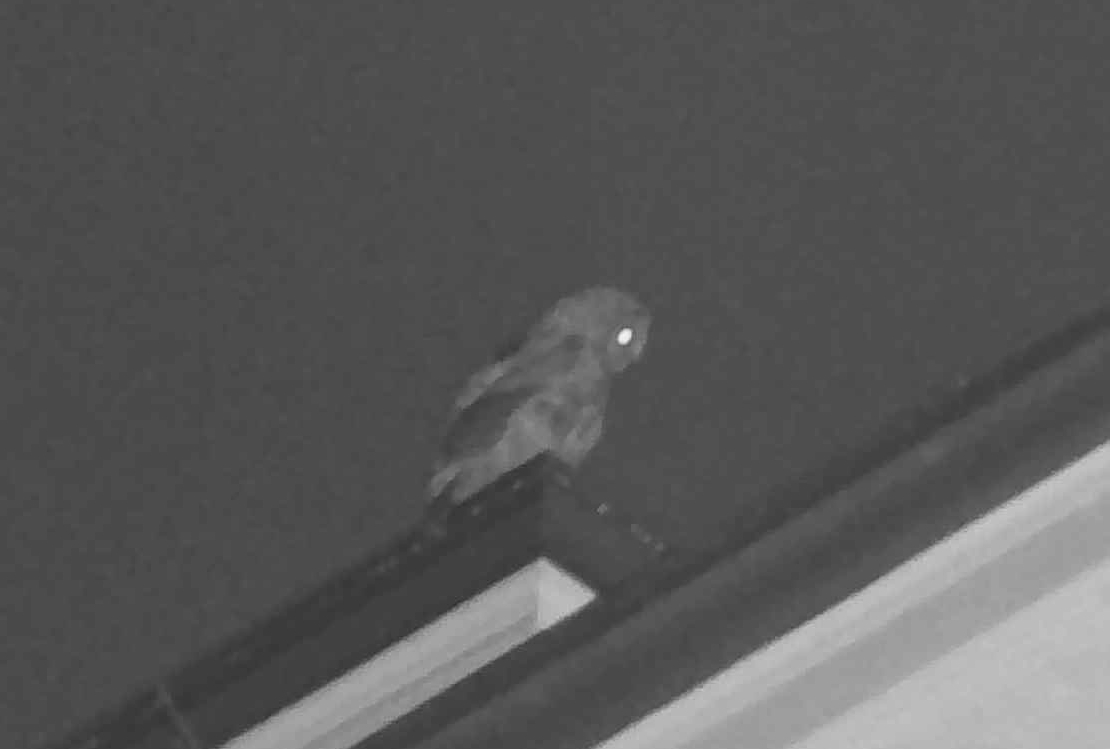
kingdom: Animalia
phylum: Chordata
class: Aves
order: Strigiformes
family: Strigidae
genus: Strix
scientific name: Strix varia
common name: Barred owl
